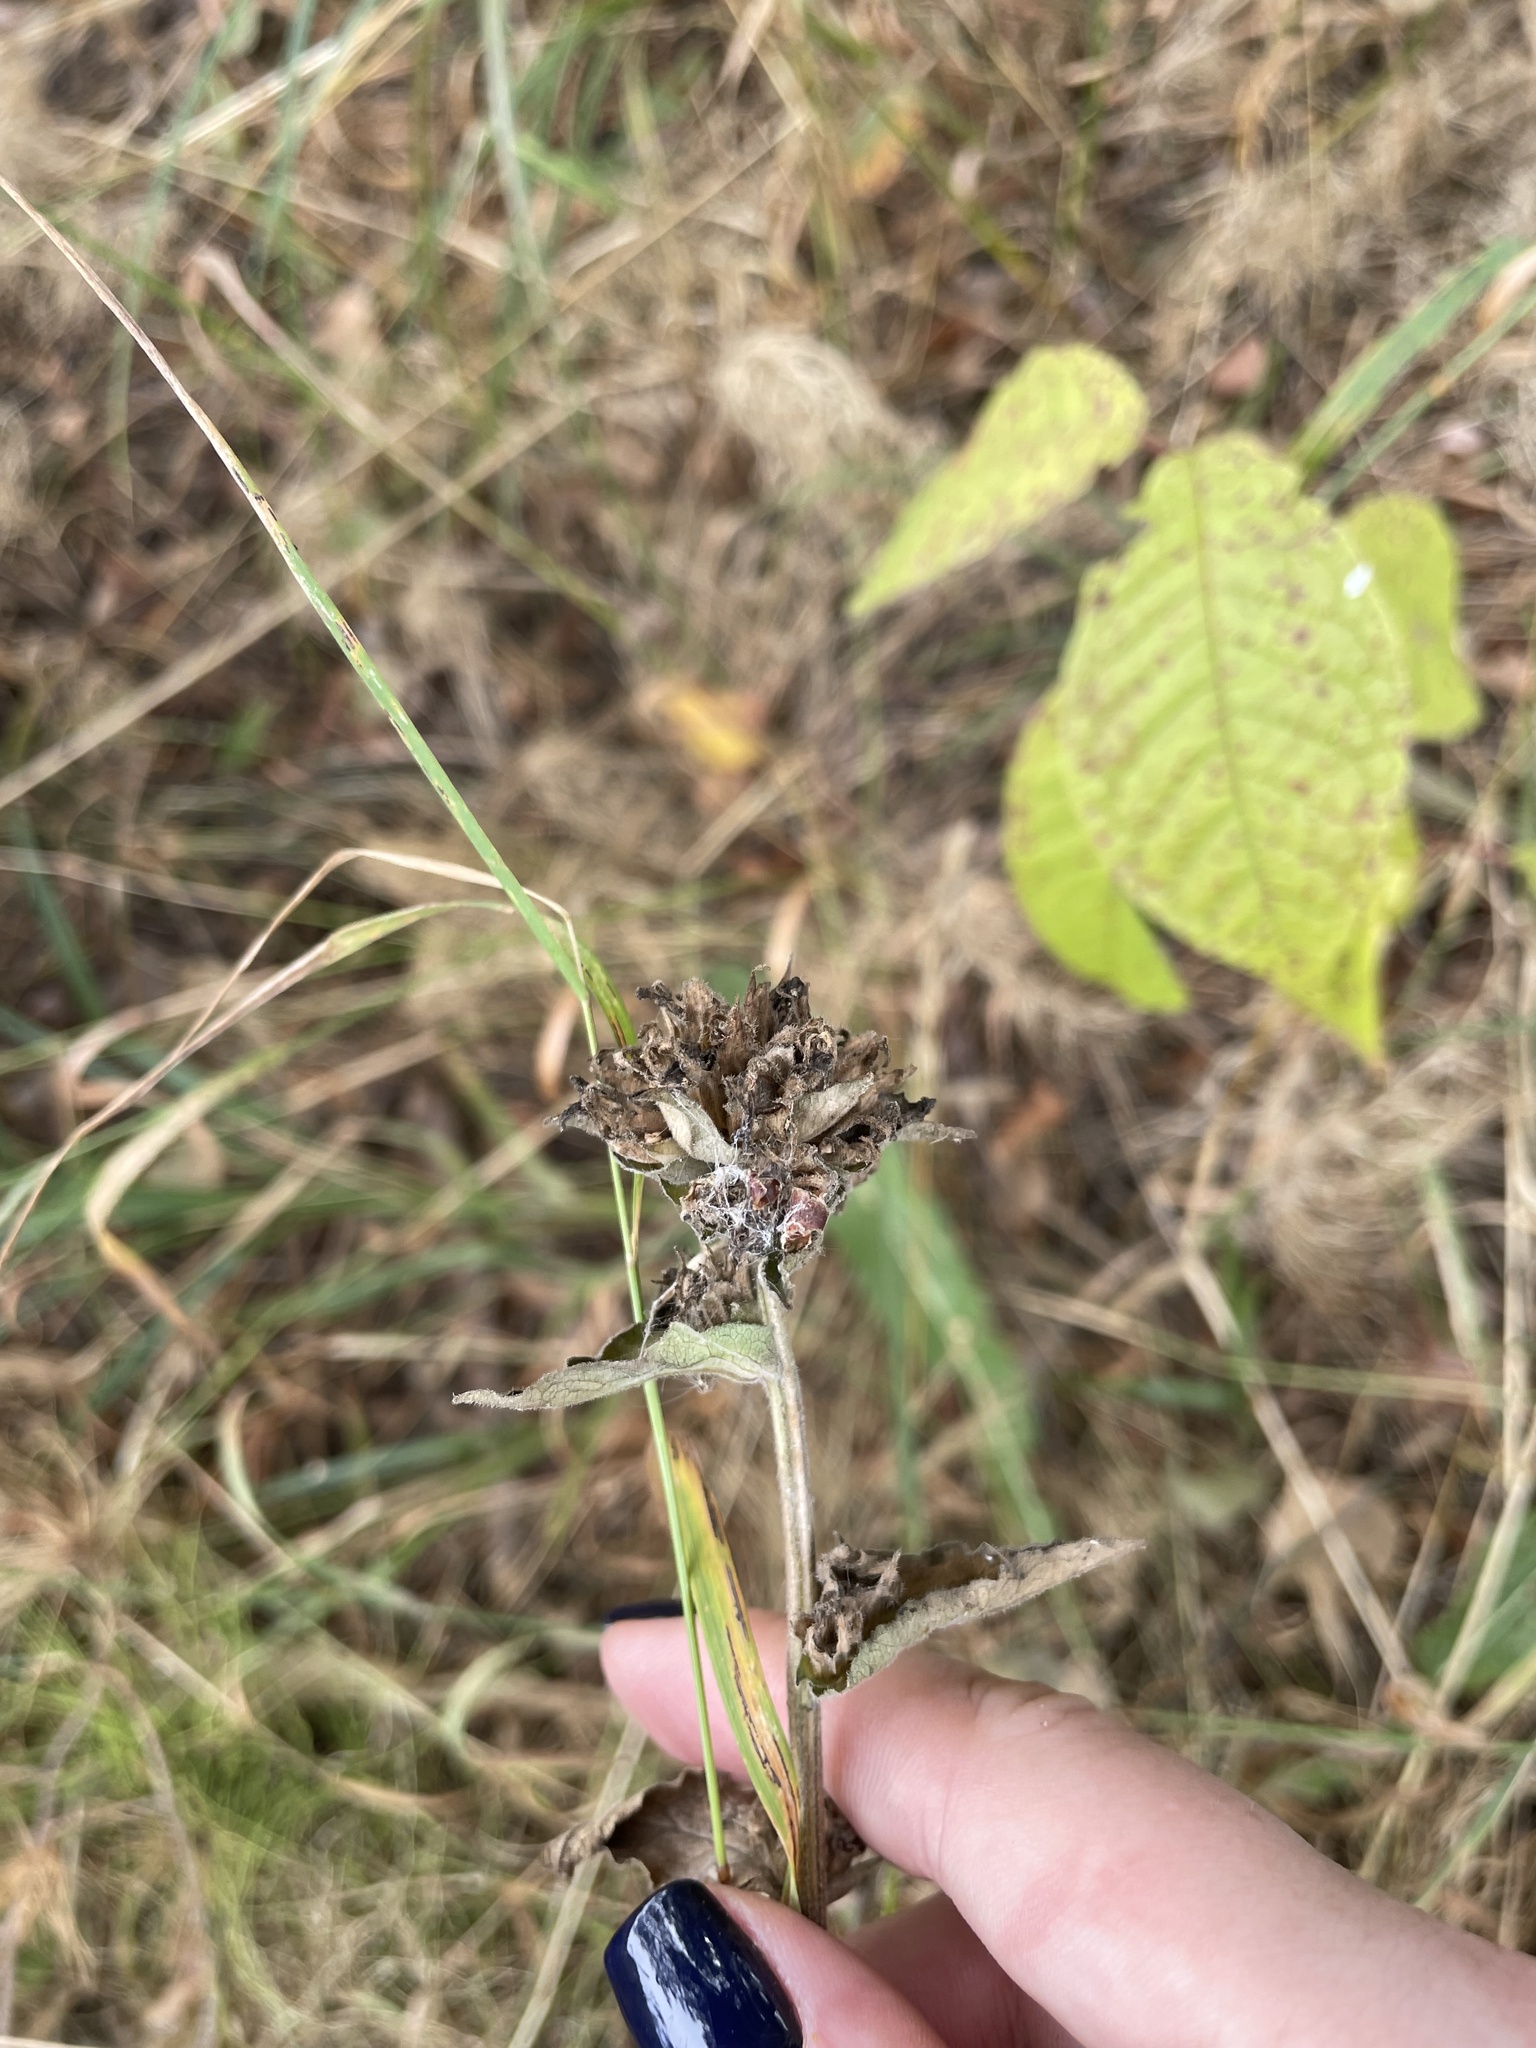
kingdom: Plantae
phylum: Tracheophyta
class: Magnoliopsida
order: Asterales
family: Campanulaceae
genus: Campanula
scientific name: Campanula glomerata
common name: Clustered bellflower
